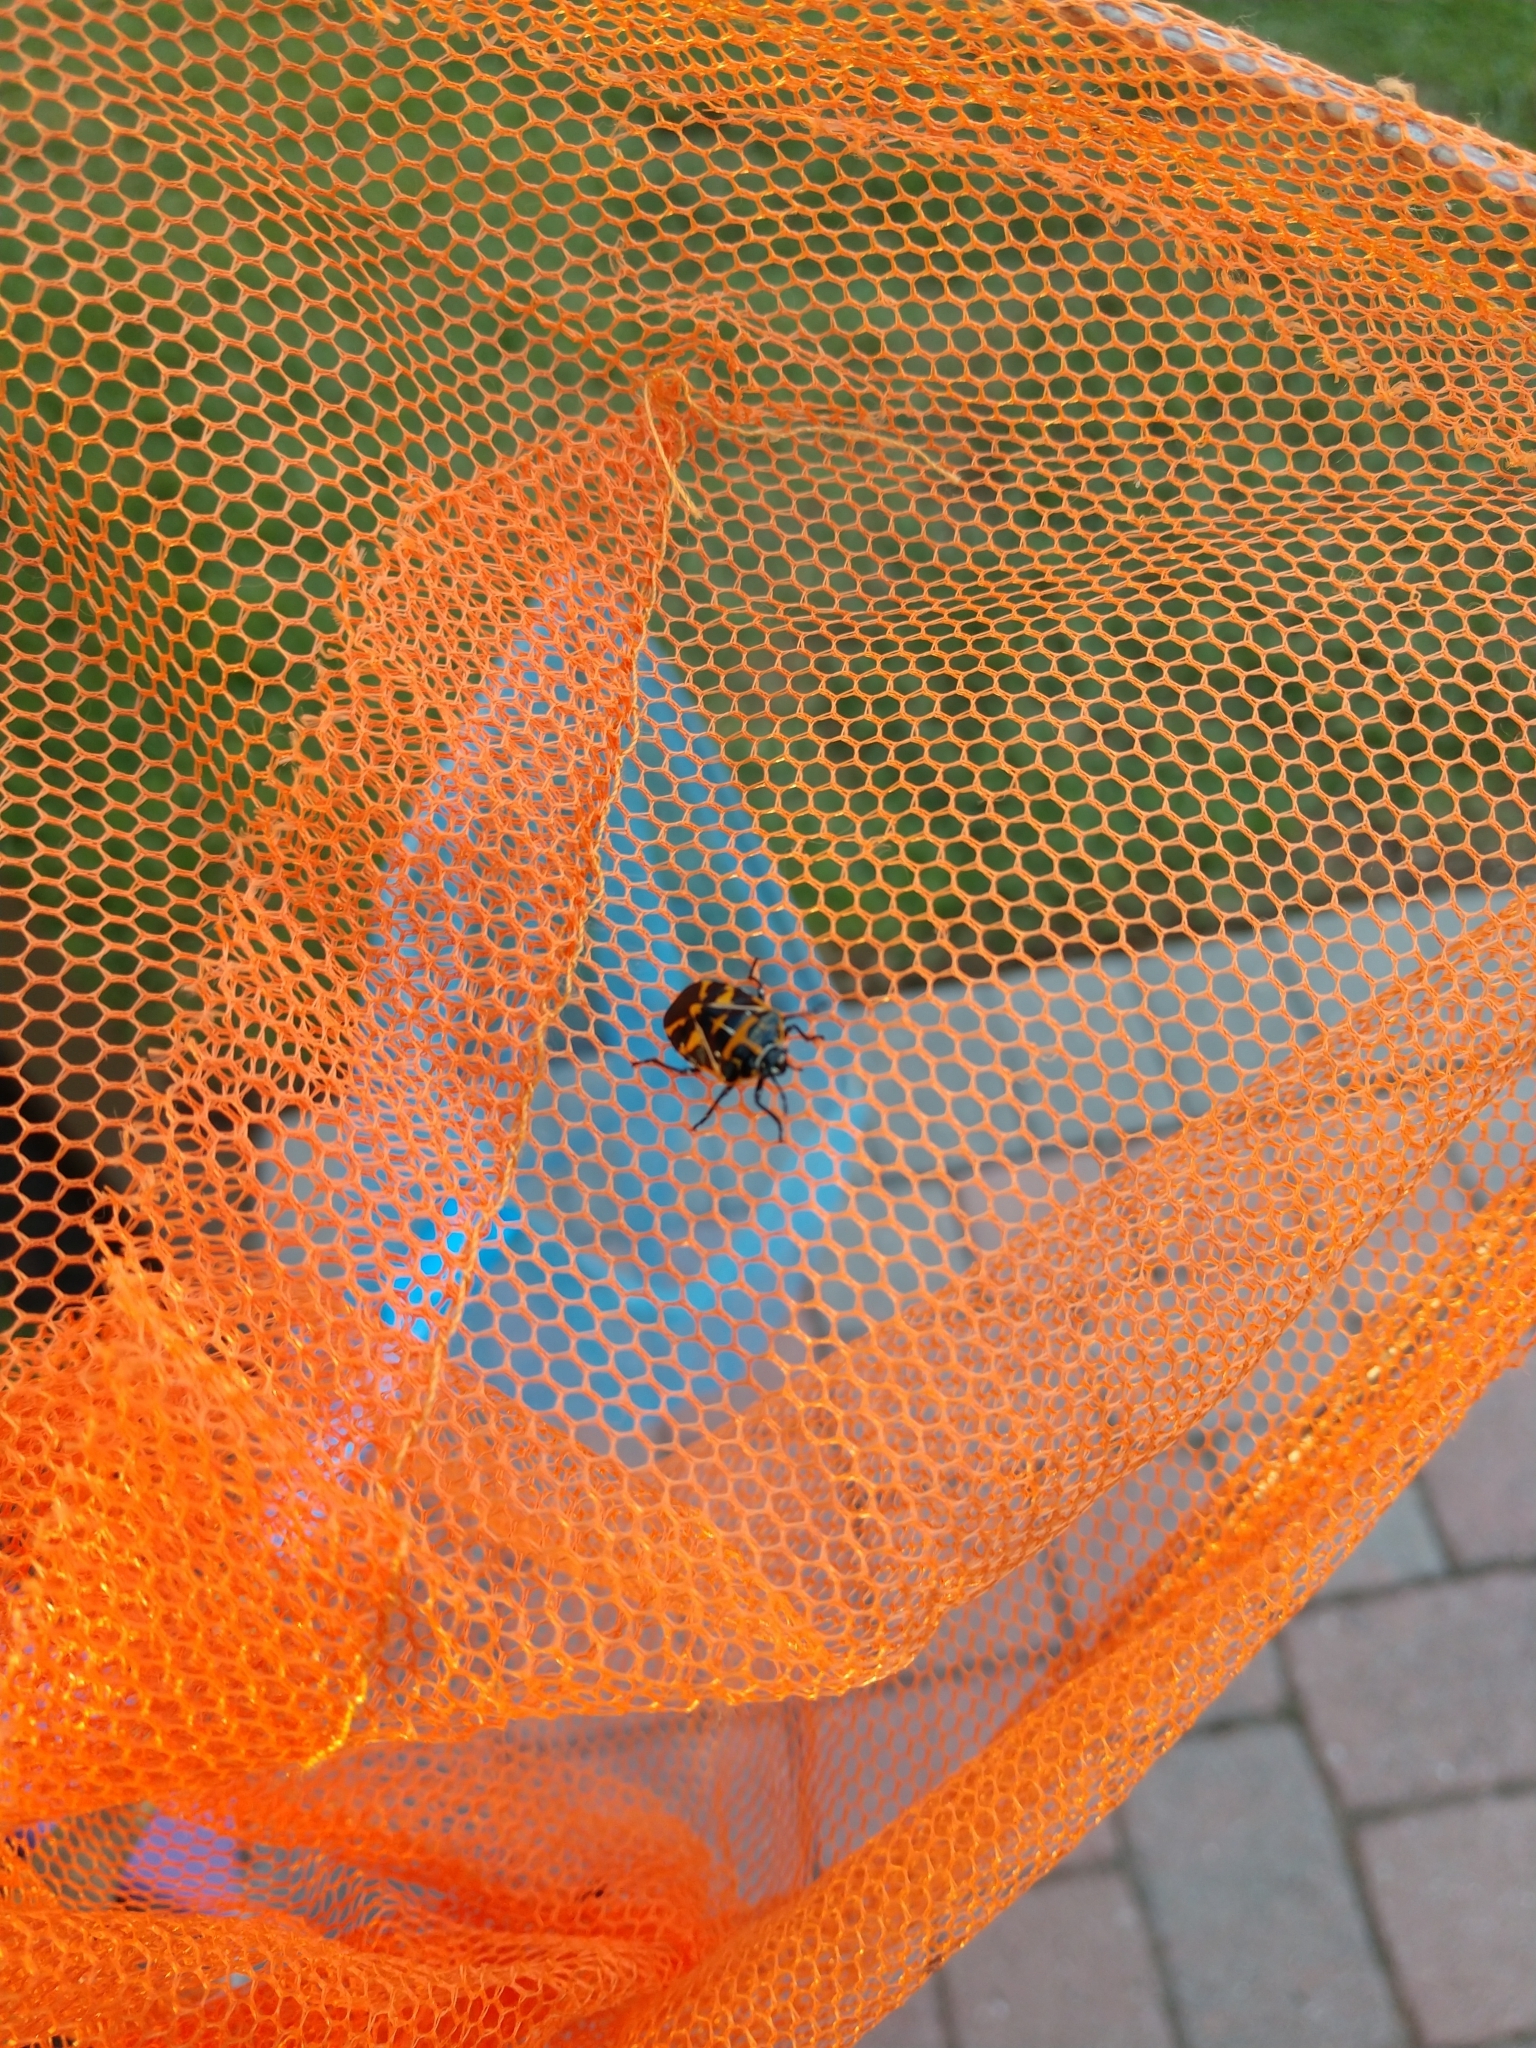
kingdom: Animalia
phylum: Arthropoda
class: Insecta
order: Hemiptera
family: Pentatomidae
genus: Murgantia
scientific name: Murgantia histrionica
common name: Harlequin bug
